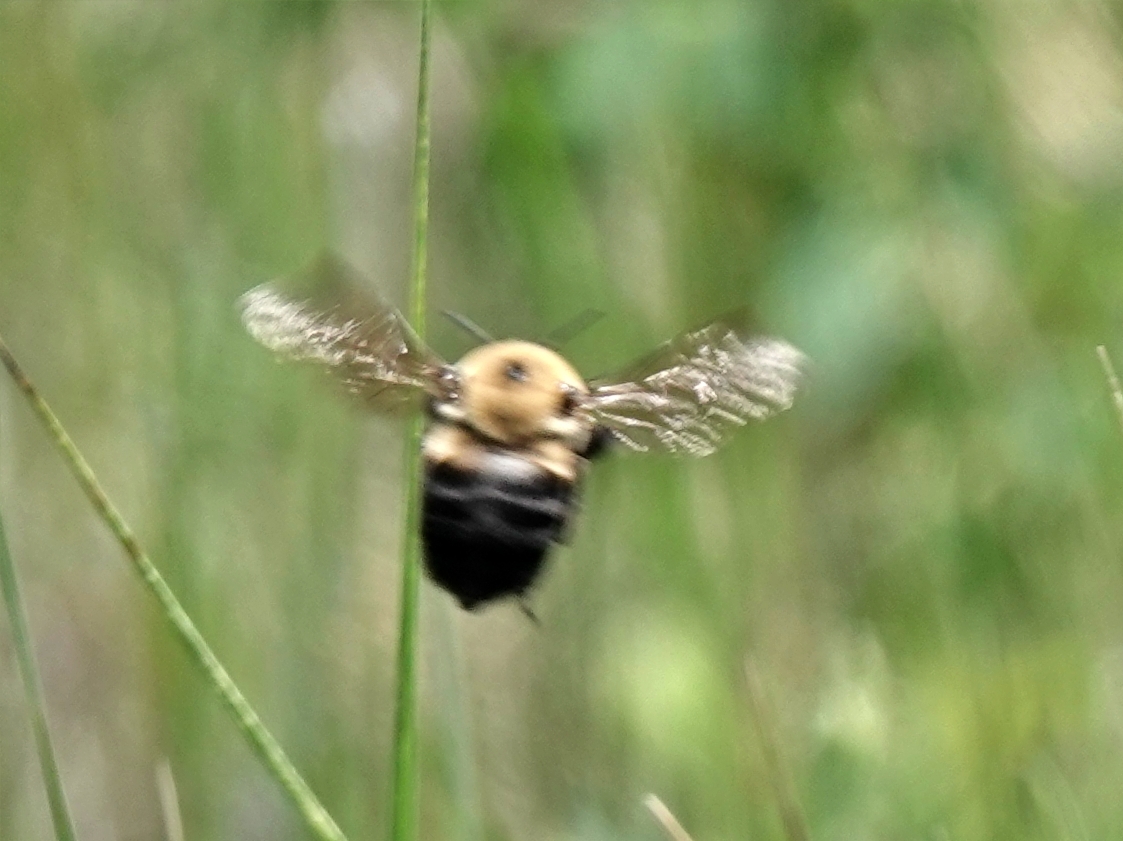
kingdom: Animalia
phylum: Arthropoda
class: Insecta
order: Hymenoptera
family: Apidae
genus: Bombus
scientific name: Bombus griseocollis
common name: Brown-belted bumble bee
